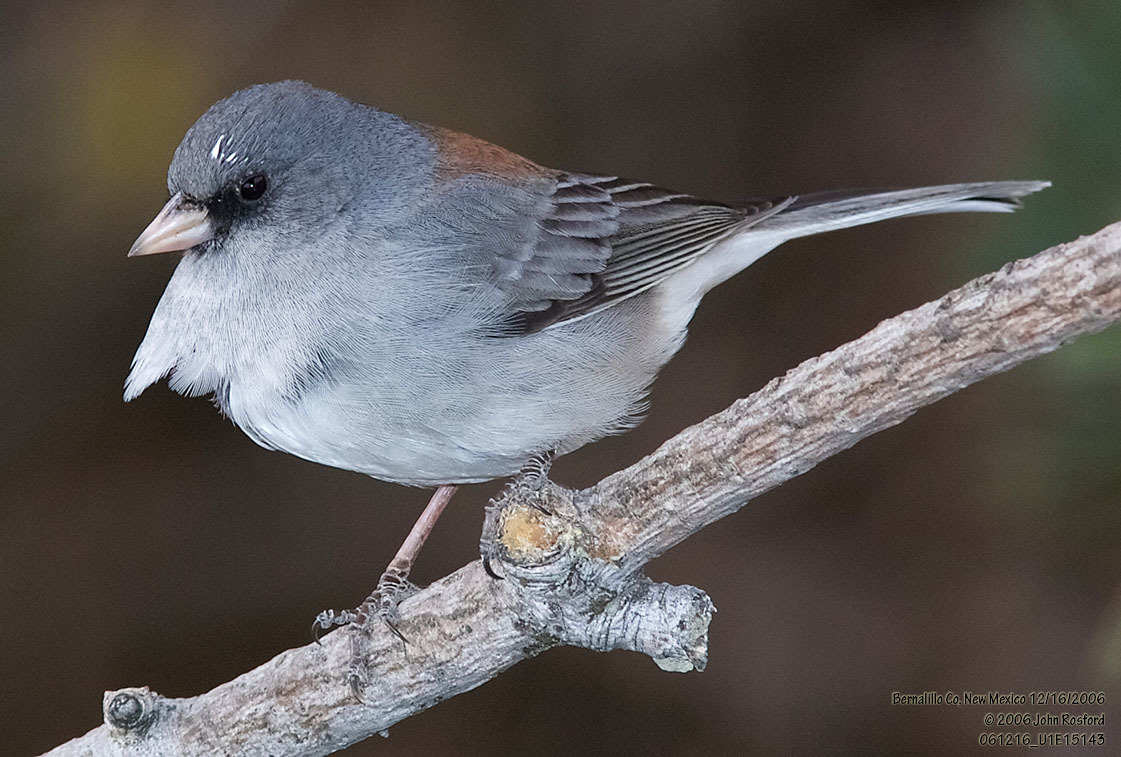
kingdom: Animalia
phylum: Chordata
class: Aves
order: Passeriformes
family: Passerellidae
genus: Junco
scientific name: Junco hyemalis
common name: Dark-eyed junco
